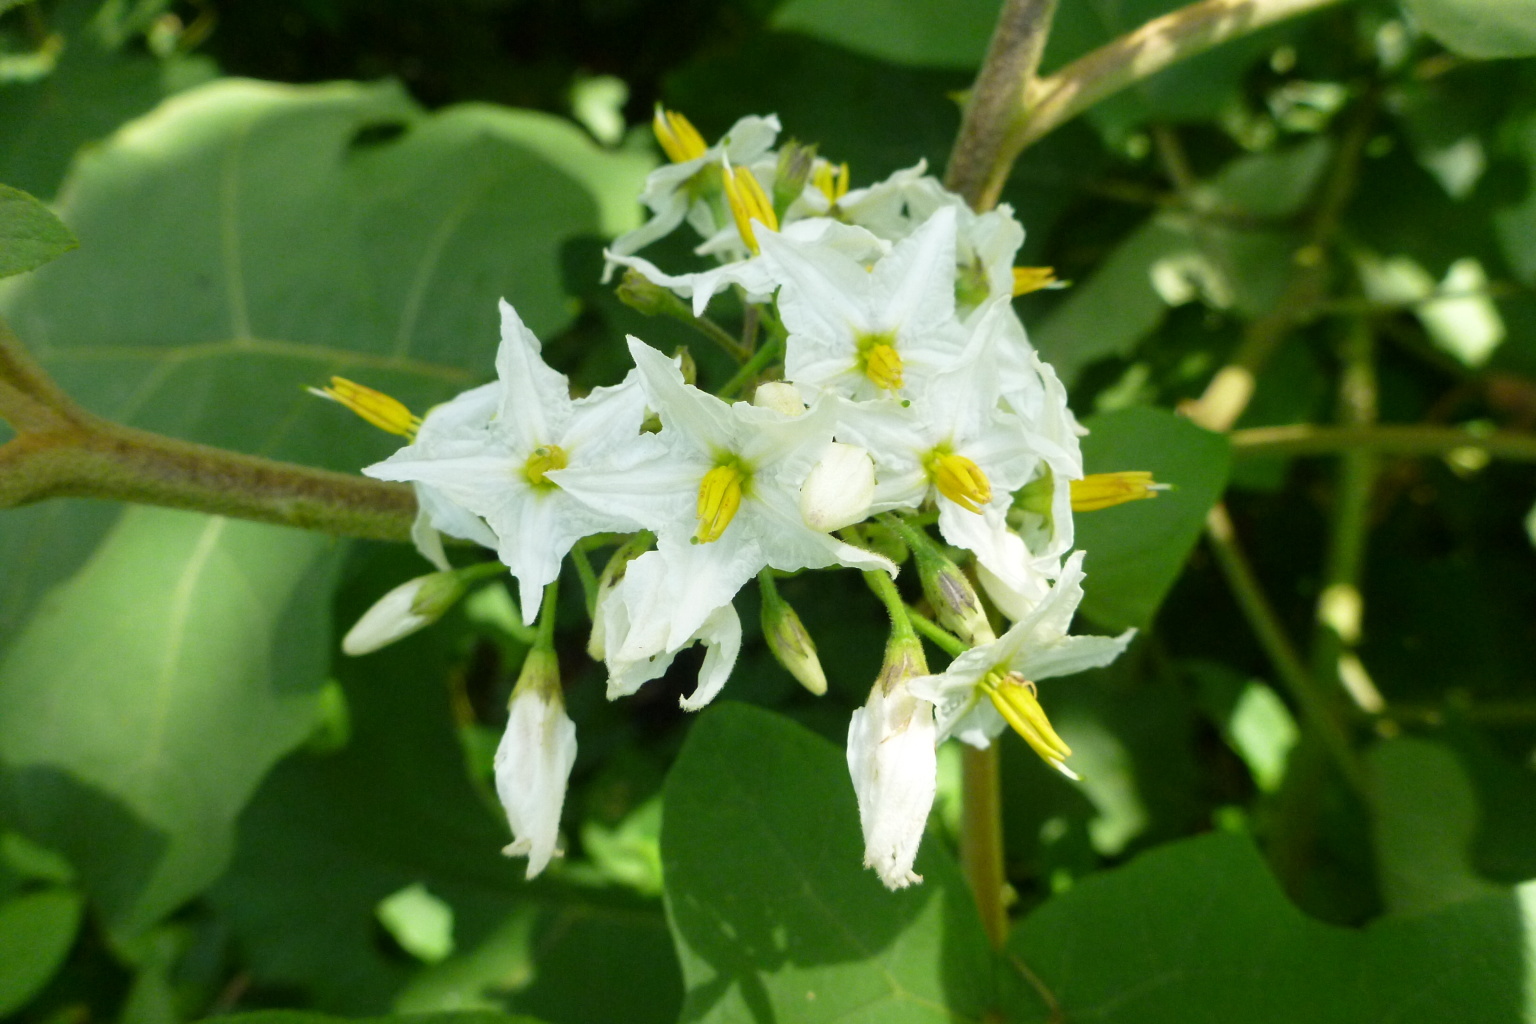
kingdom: Plantae
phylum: Tracheophyta
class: Magnoliopsida
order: Solanales
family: Solanaceae
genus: Solanum
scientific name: Solanum torvum
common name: Turkey berry
